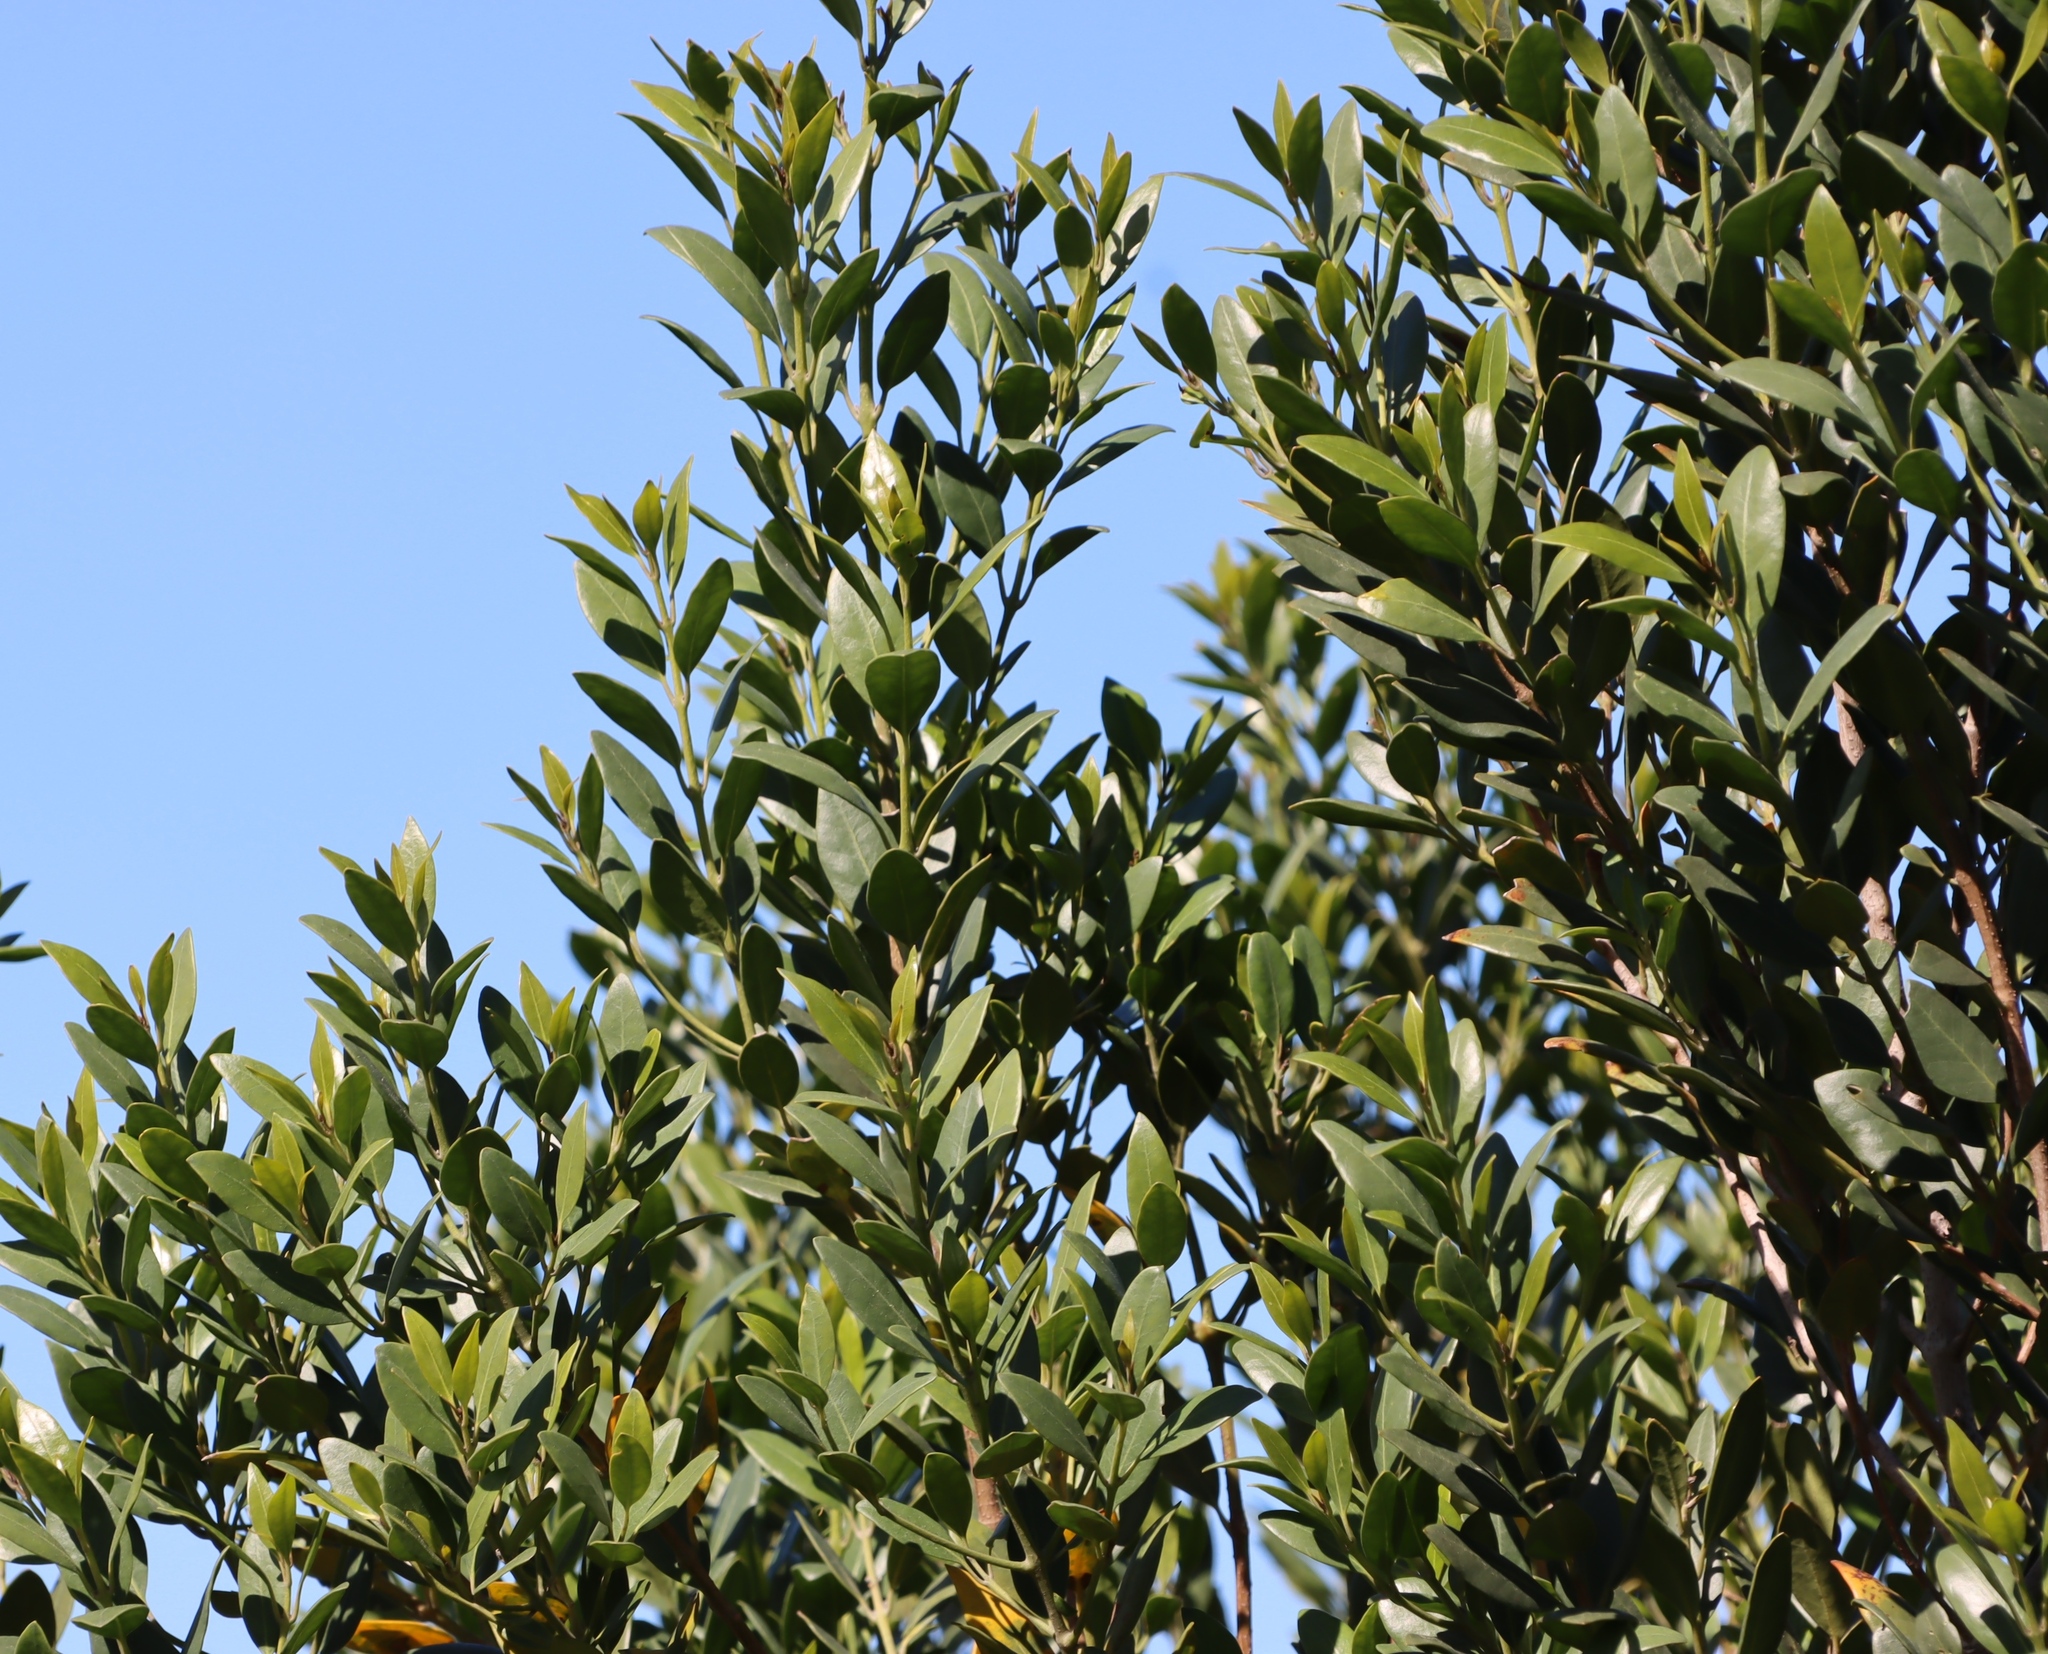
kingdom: Plantae
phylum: Tracheophyta
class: Magnoliopsida
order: Ericales
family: Primulaceae
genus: Myrsine
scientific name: Myrsine melanophloeos
